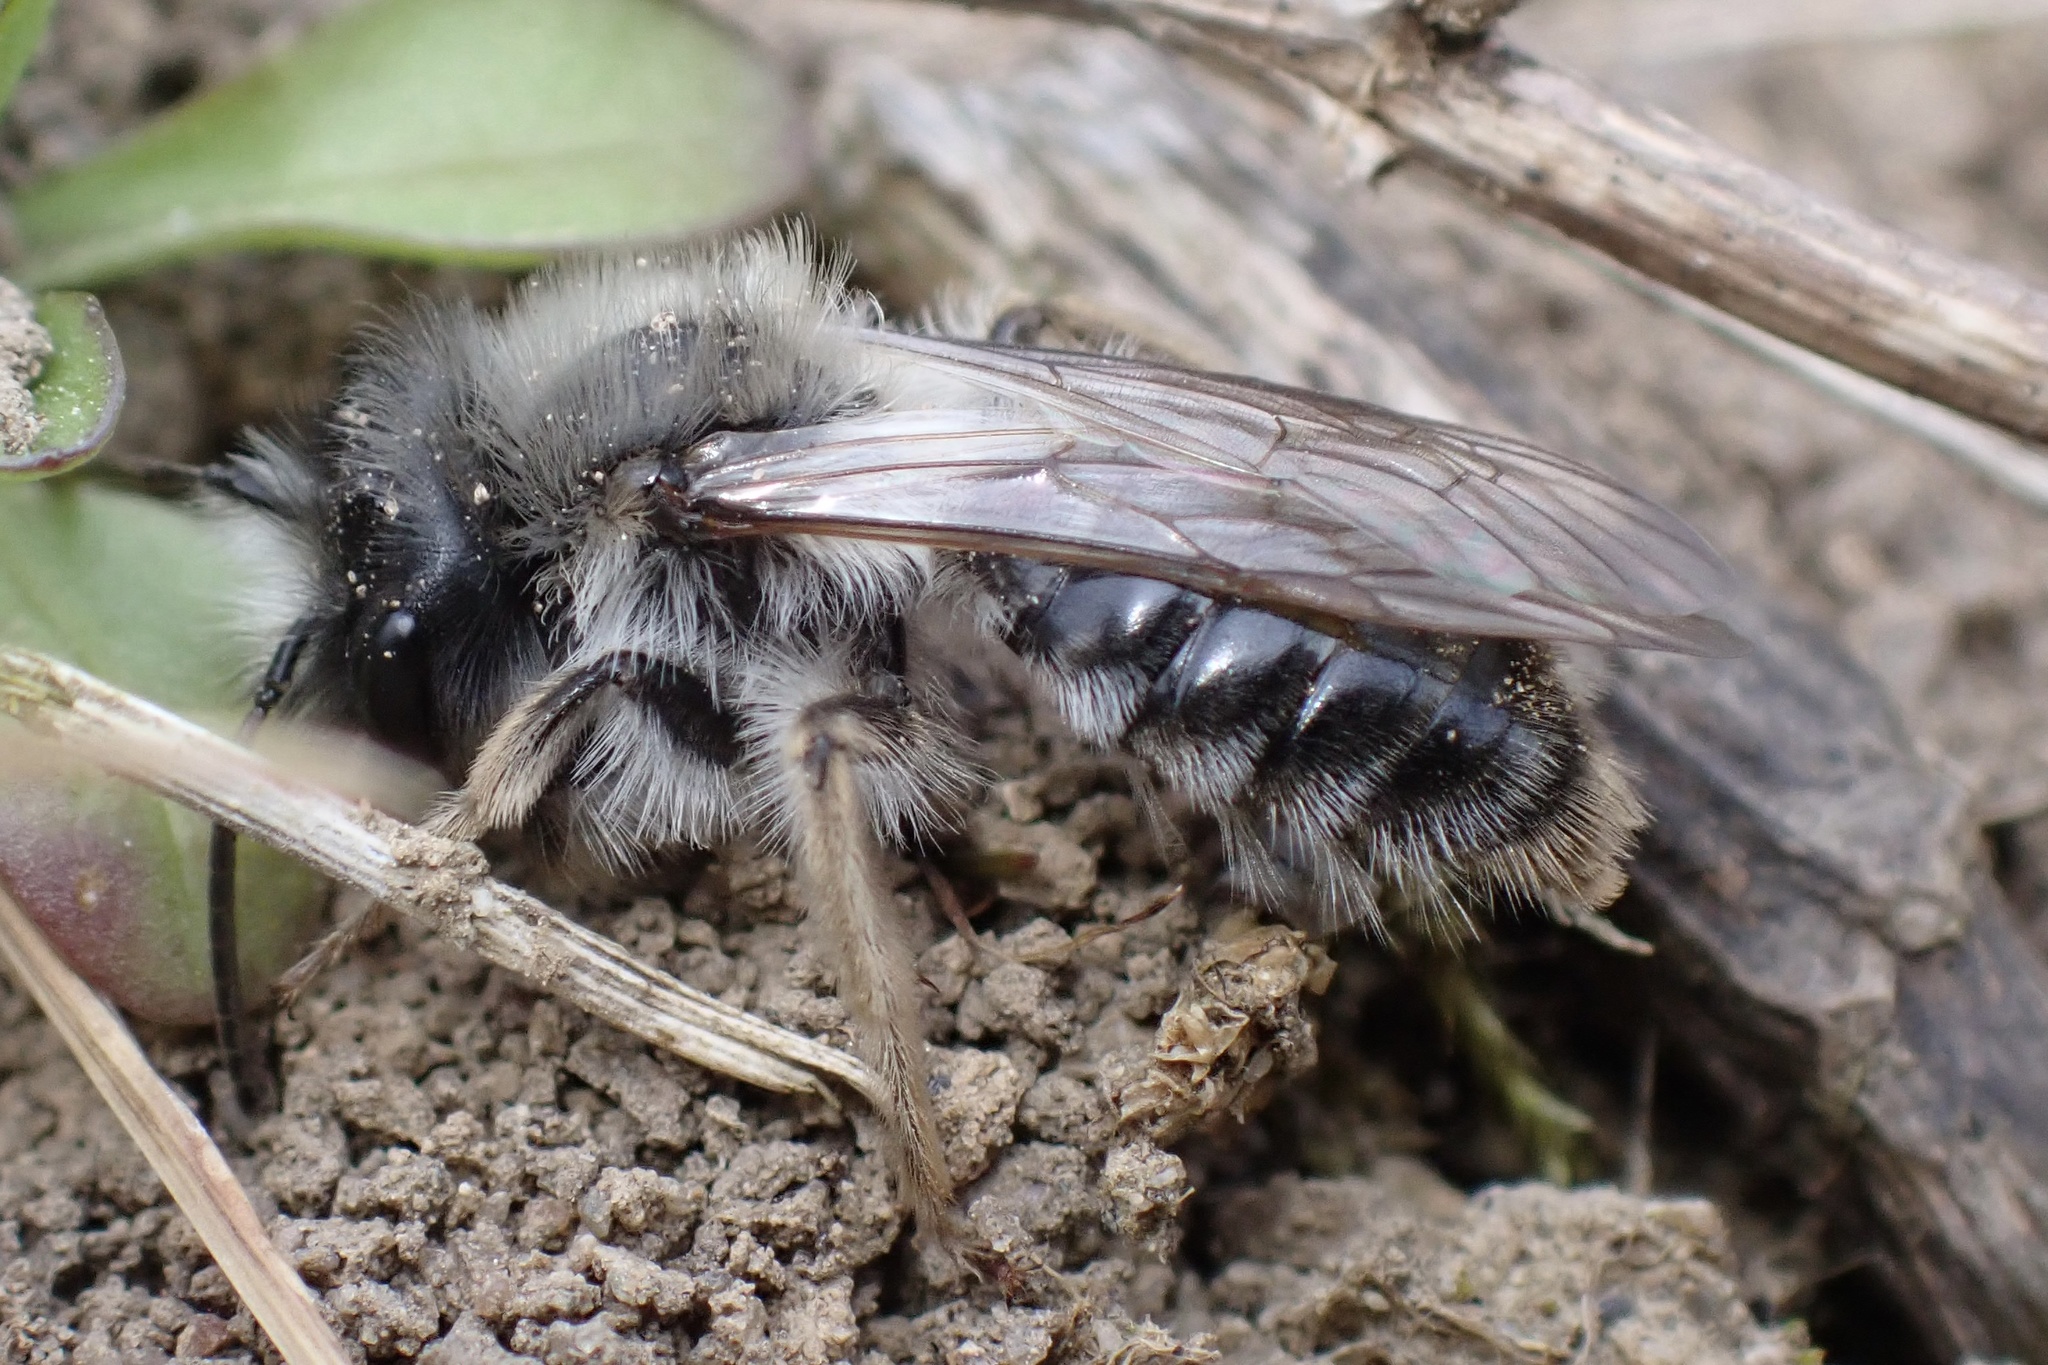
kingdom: Animalia
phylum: Arthropoda
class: Insecta
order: Hymenoptera
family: Andrenidae
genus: Andrena
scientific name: Andrena vaga
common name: Grey-backed mining bee
